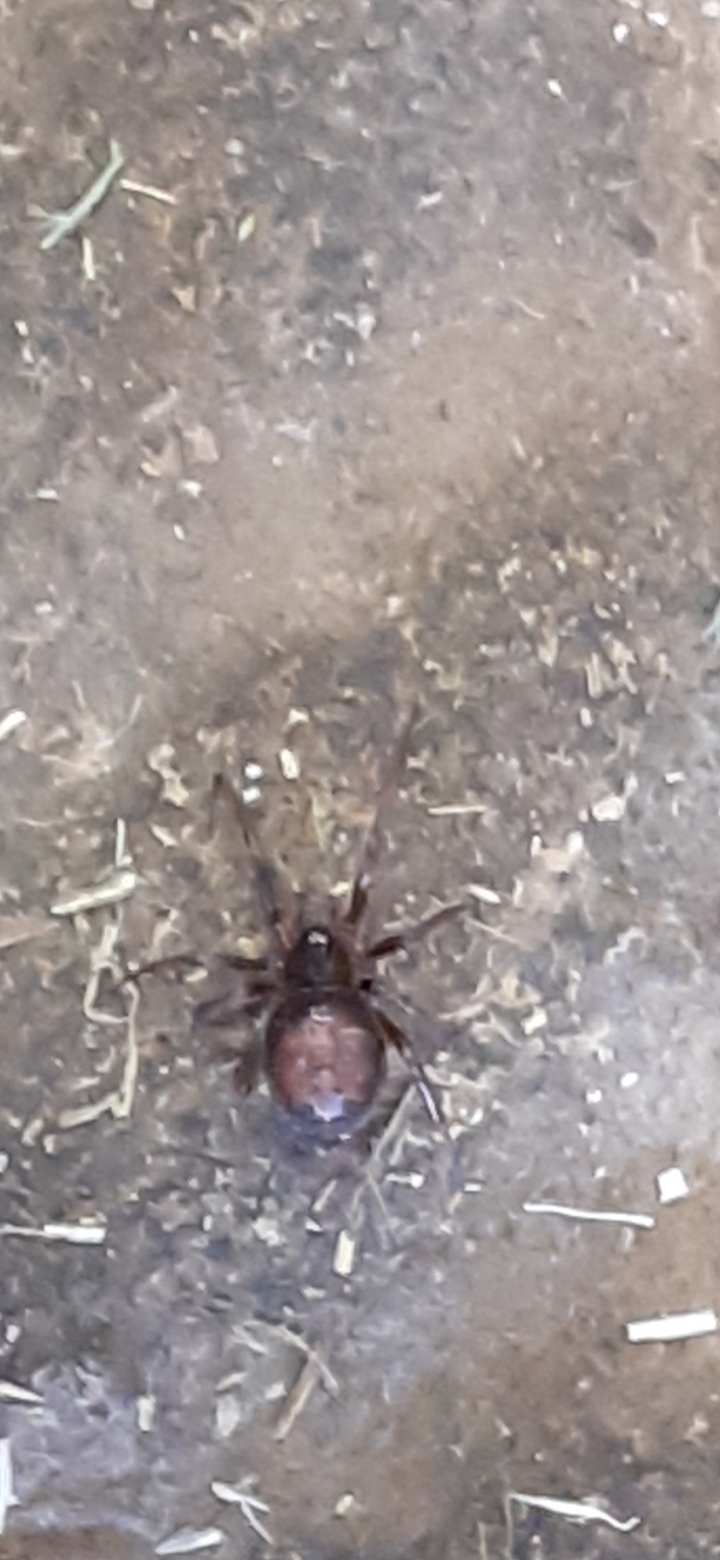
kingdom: Animalia
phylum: Arthropoda
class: Arachnida
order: Araneae
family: Theridiidae
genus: Steatoda
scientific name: Steatoda bipunctata
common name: False widow
